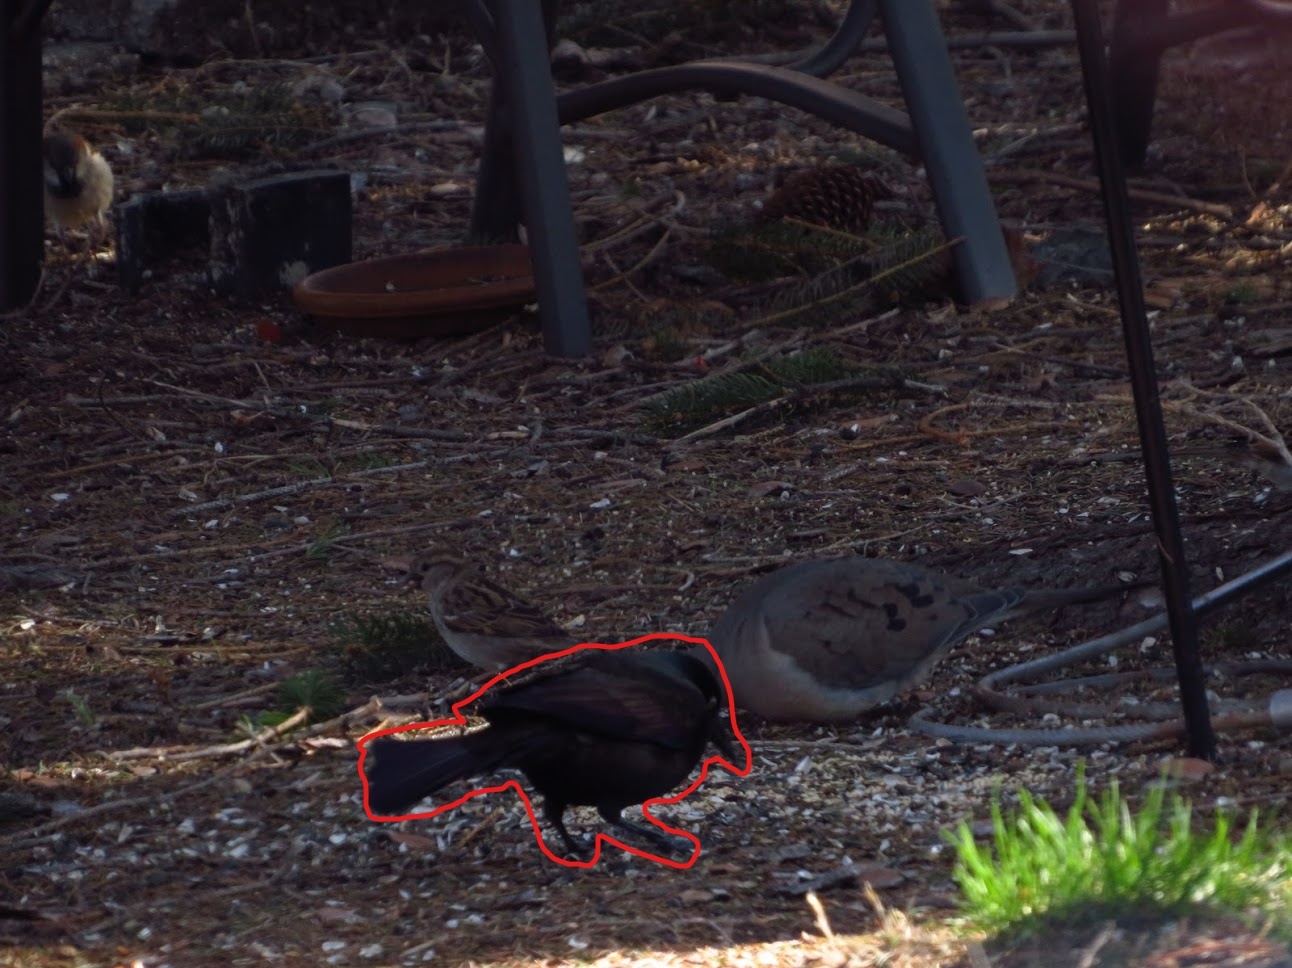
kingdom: Animalia
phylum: Chordata
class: Aves
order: Passeriformes
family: Icteridae
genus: Quiscalus
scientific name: Quiscalus quiscula
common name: Common grackle
